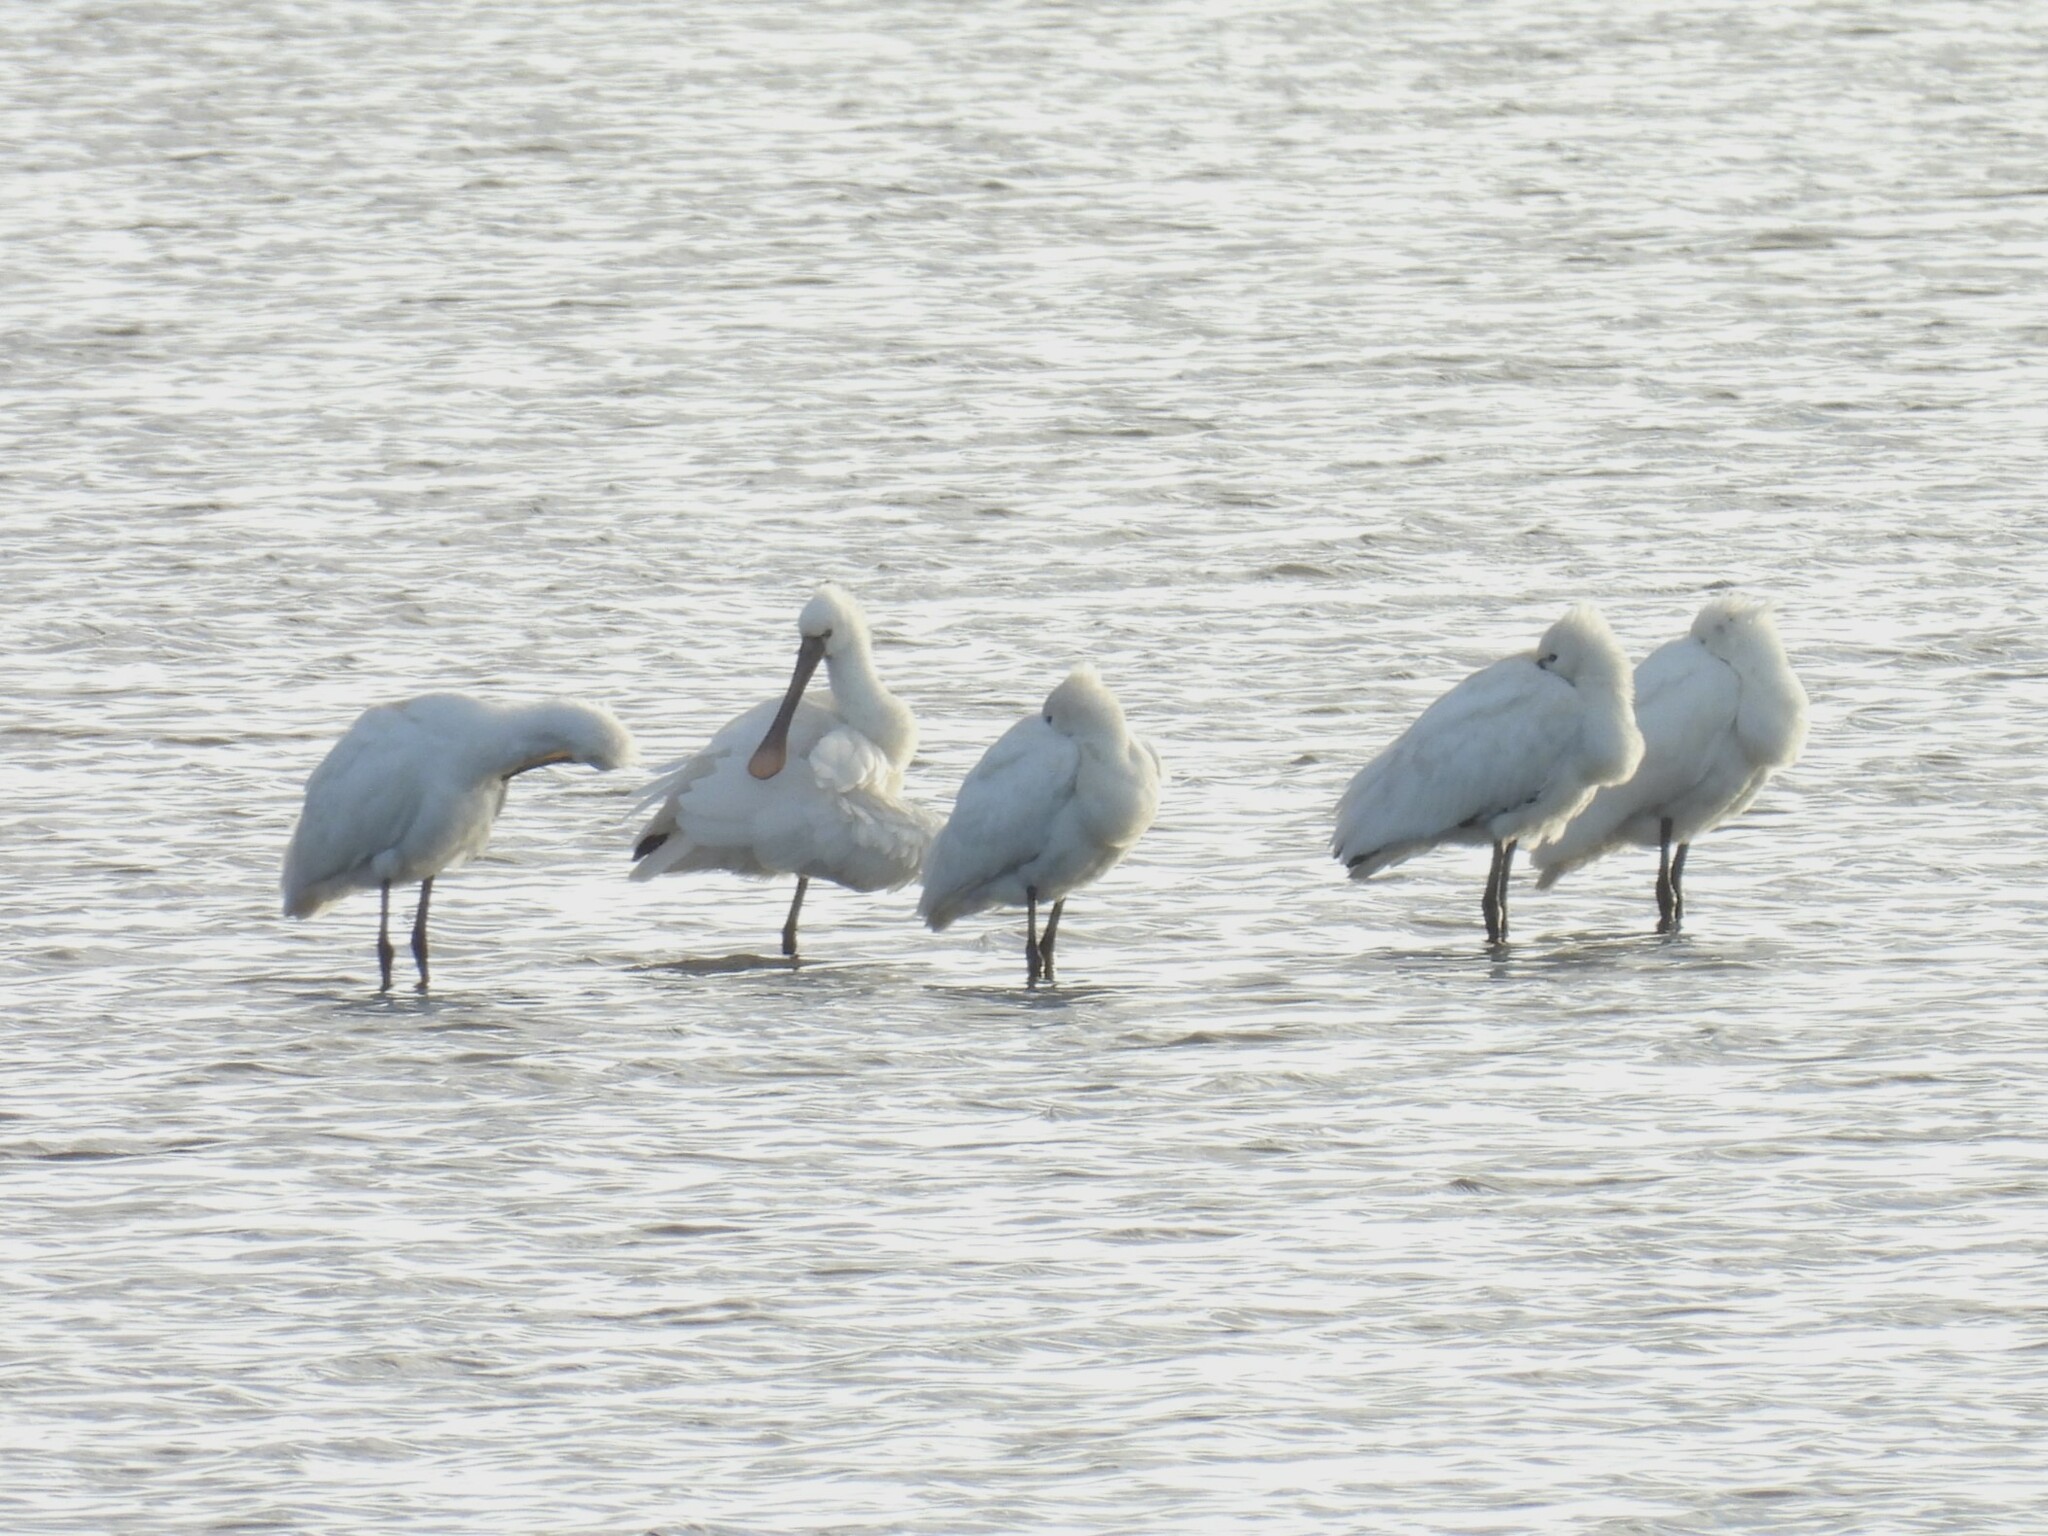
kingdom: Animalia
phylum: Chordata
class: Aves
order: Pelecaniformes
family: Threskiornithidae
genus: Platalea
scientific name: Platalea leucorodia
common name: Eurasian spoonbill
